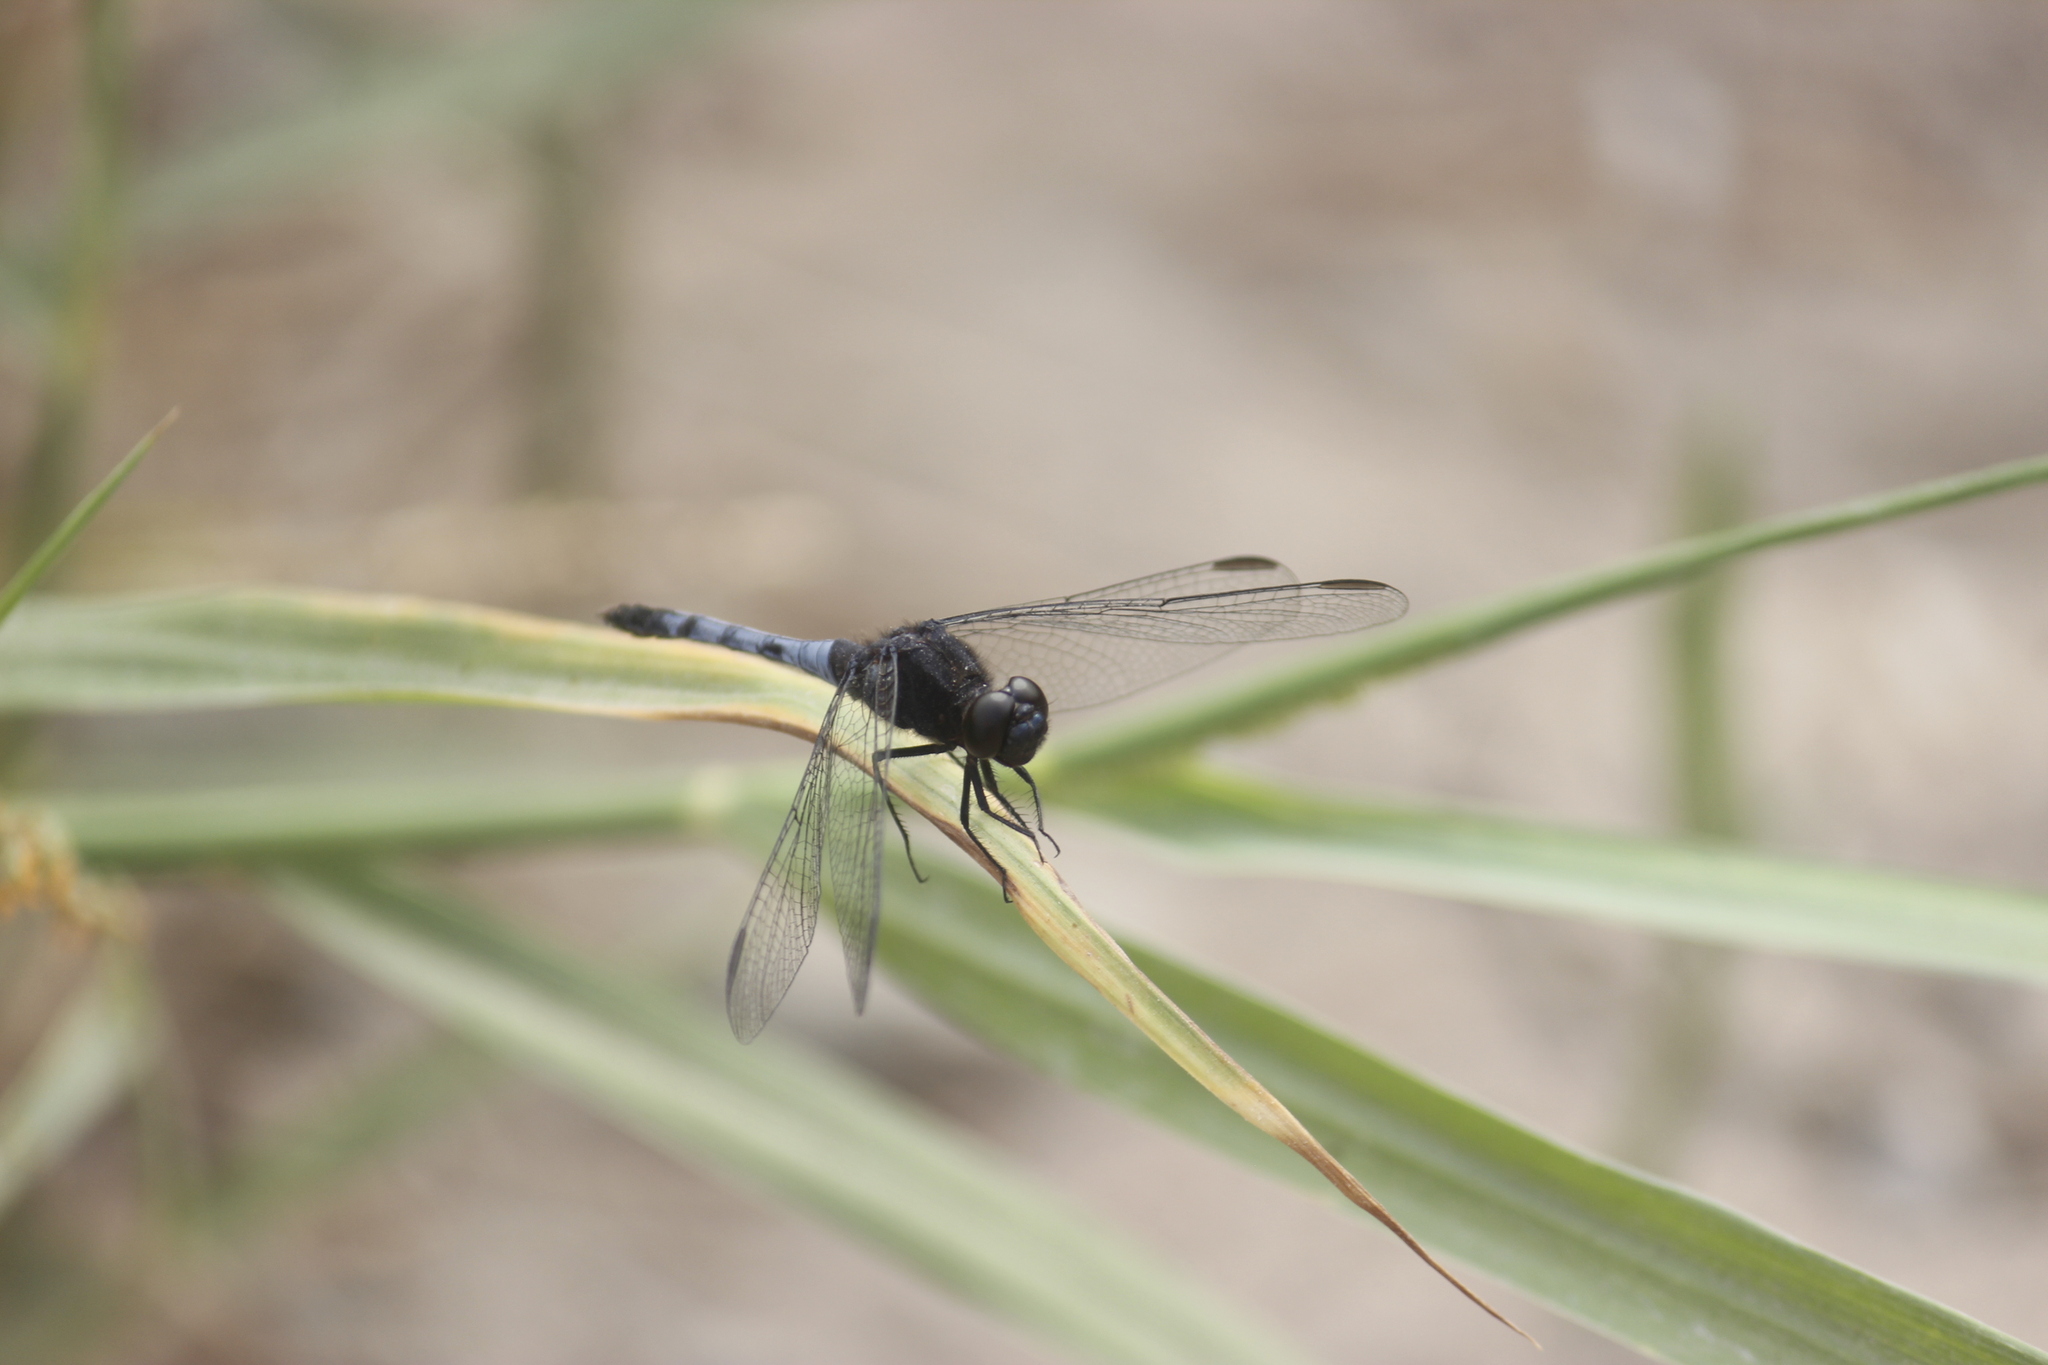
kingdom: Animalia
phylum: Arthropoda
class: Insecta
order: Odonata
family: Libellulidae
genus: Erythrodiplax
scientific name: Erythrodiplax cleopatra
